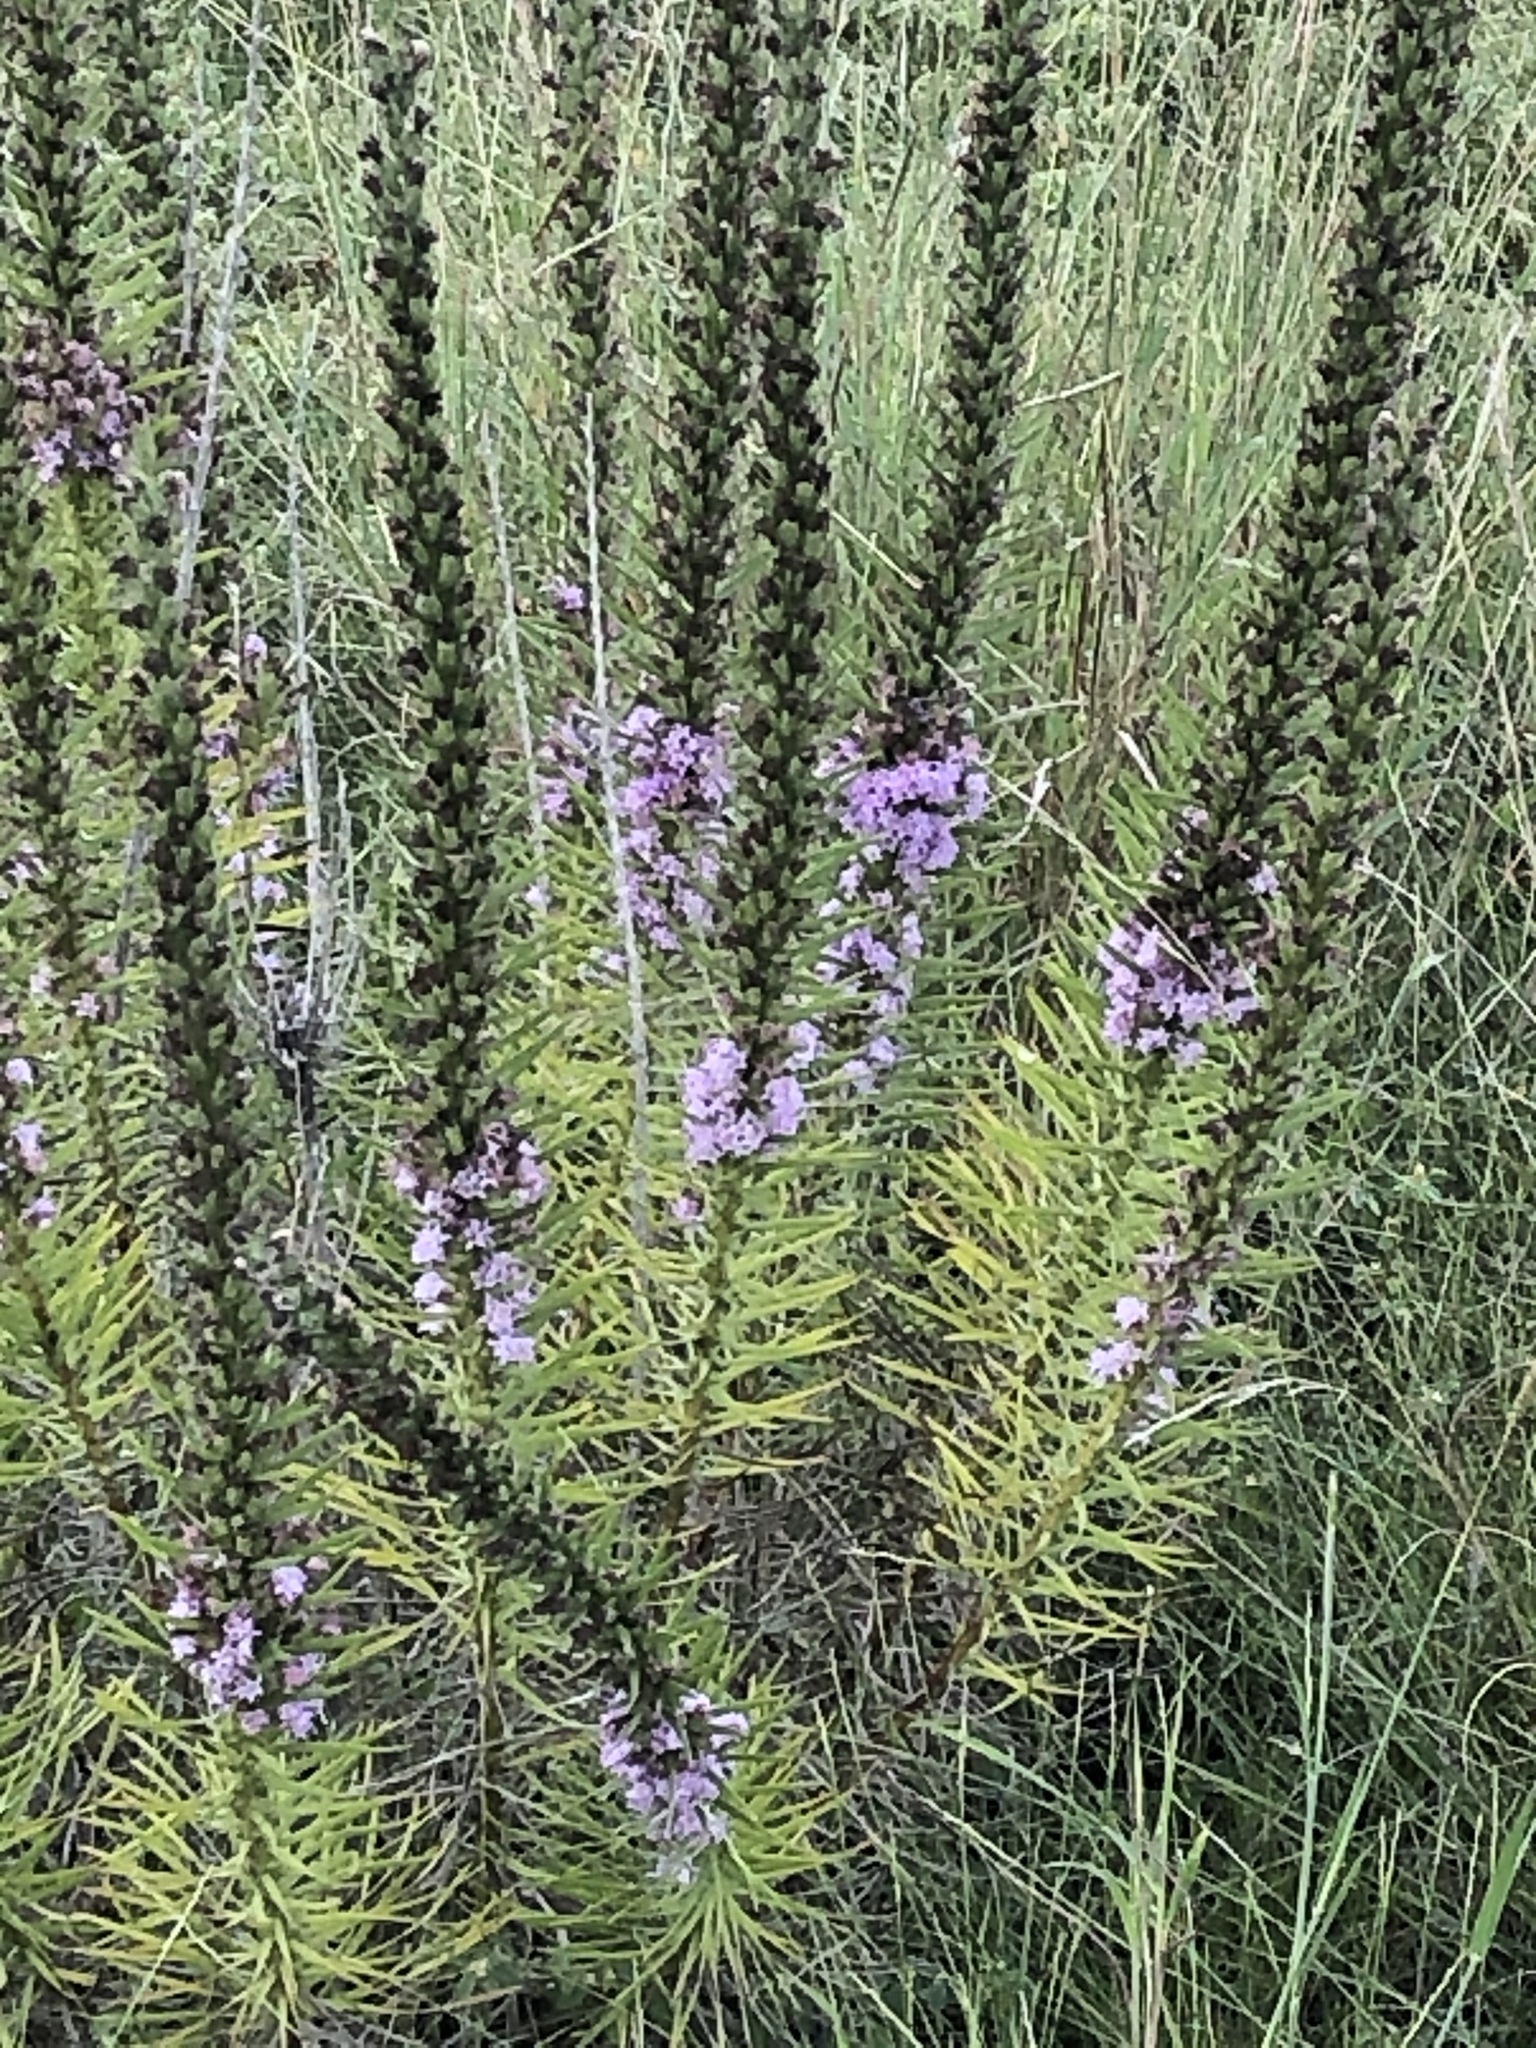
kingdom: Plantae
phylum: Tracheophyta
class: Magnoliopsida
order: Asterales
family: Asteraceae
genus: Liatris
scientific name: Liatris punctata
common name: Dotted gayfeather
